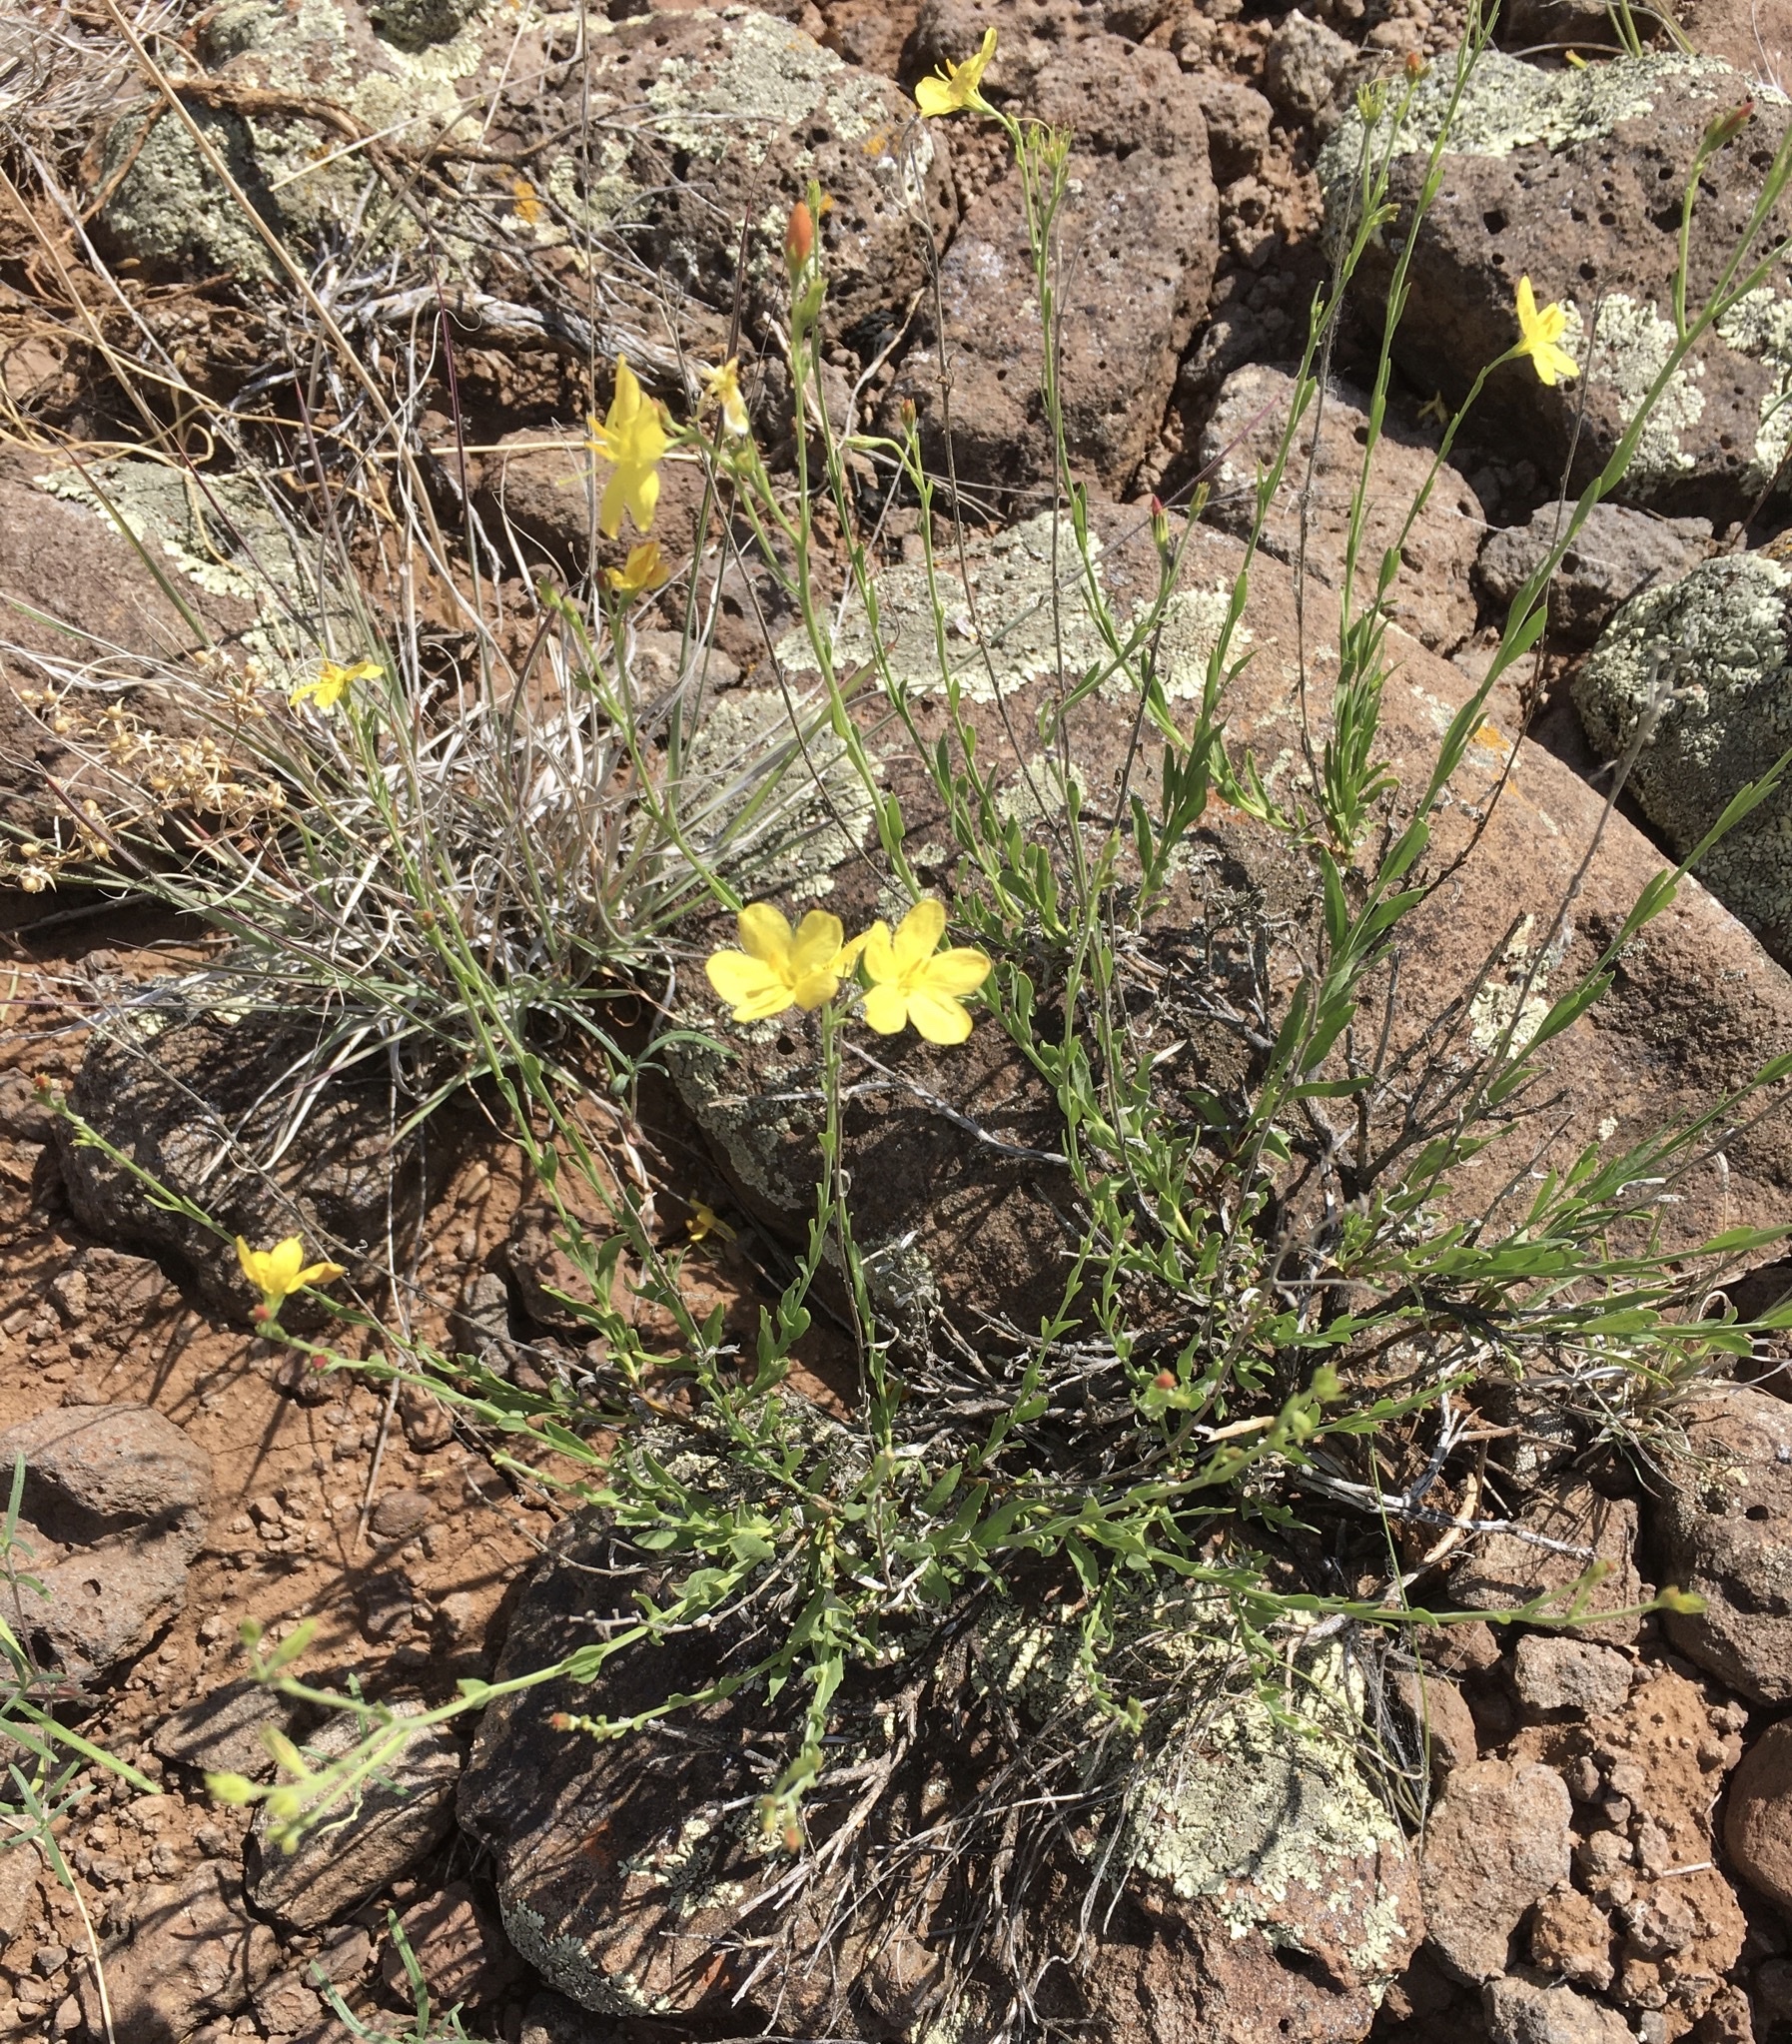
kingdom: Plantae
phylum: Tracheophyta
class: Magnoliopsida
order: Lamiales
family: Oleaceae
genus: Menodora
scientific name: Menodora scabra
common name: Rough menodora
